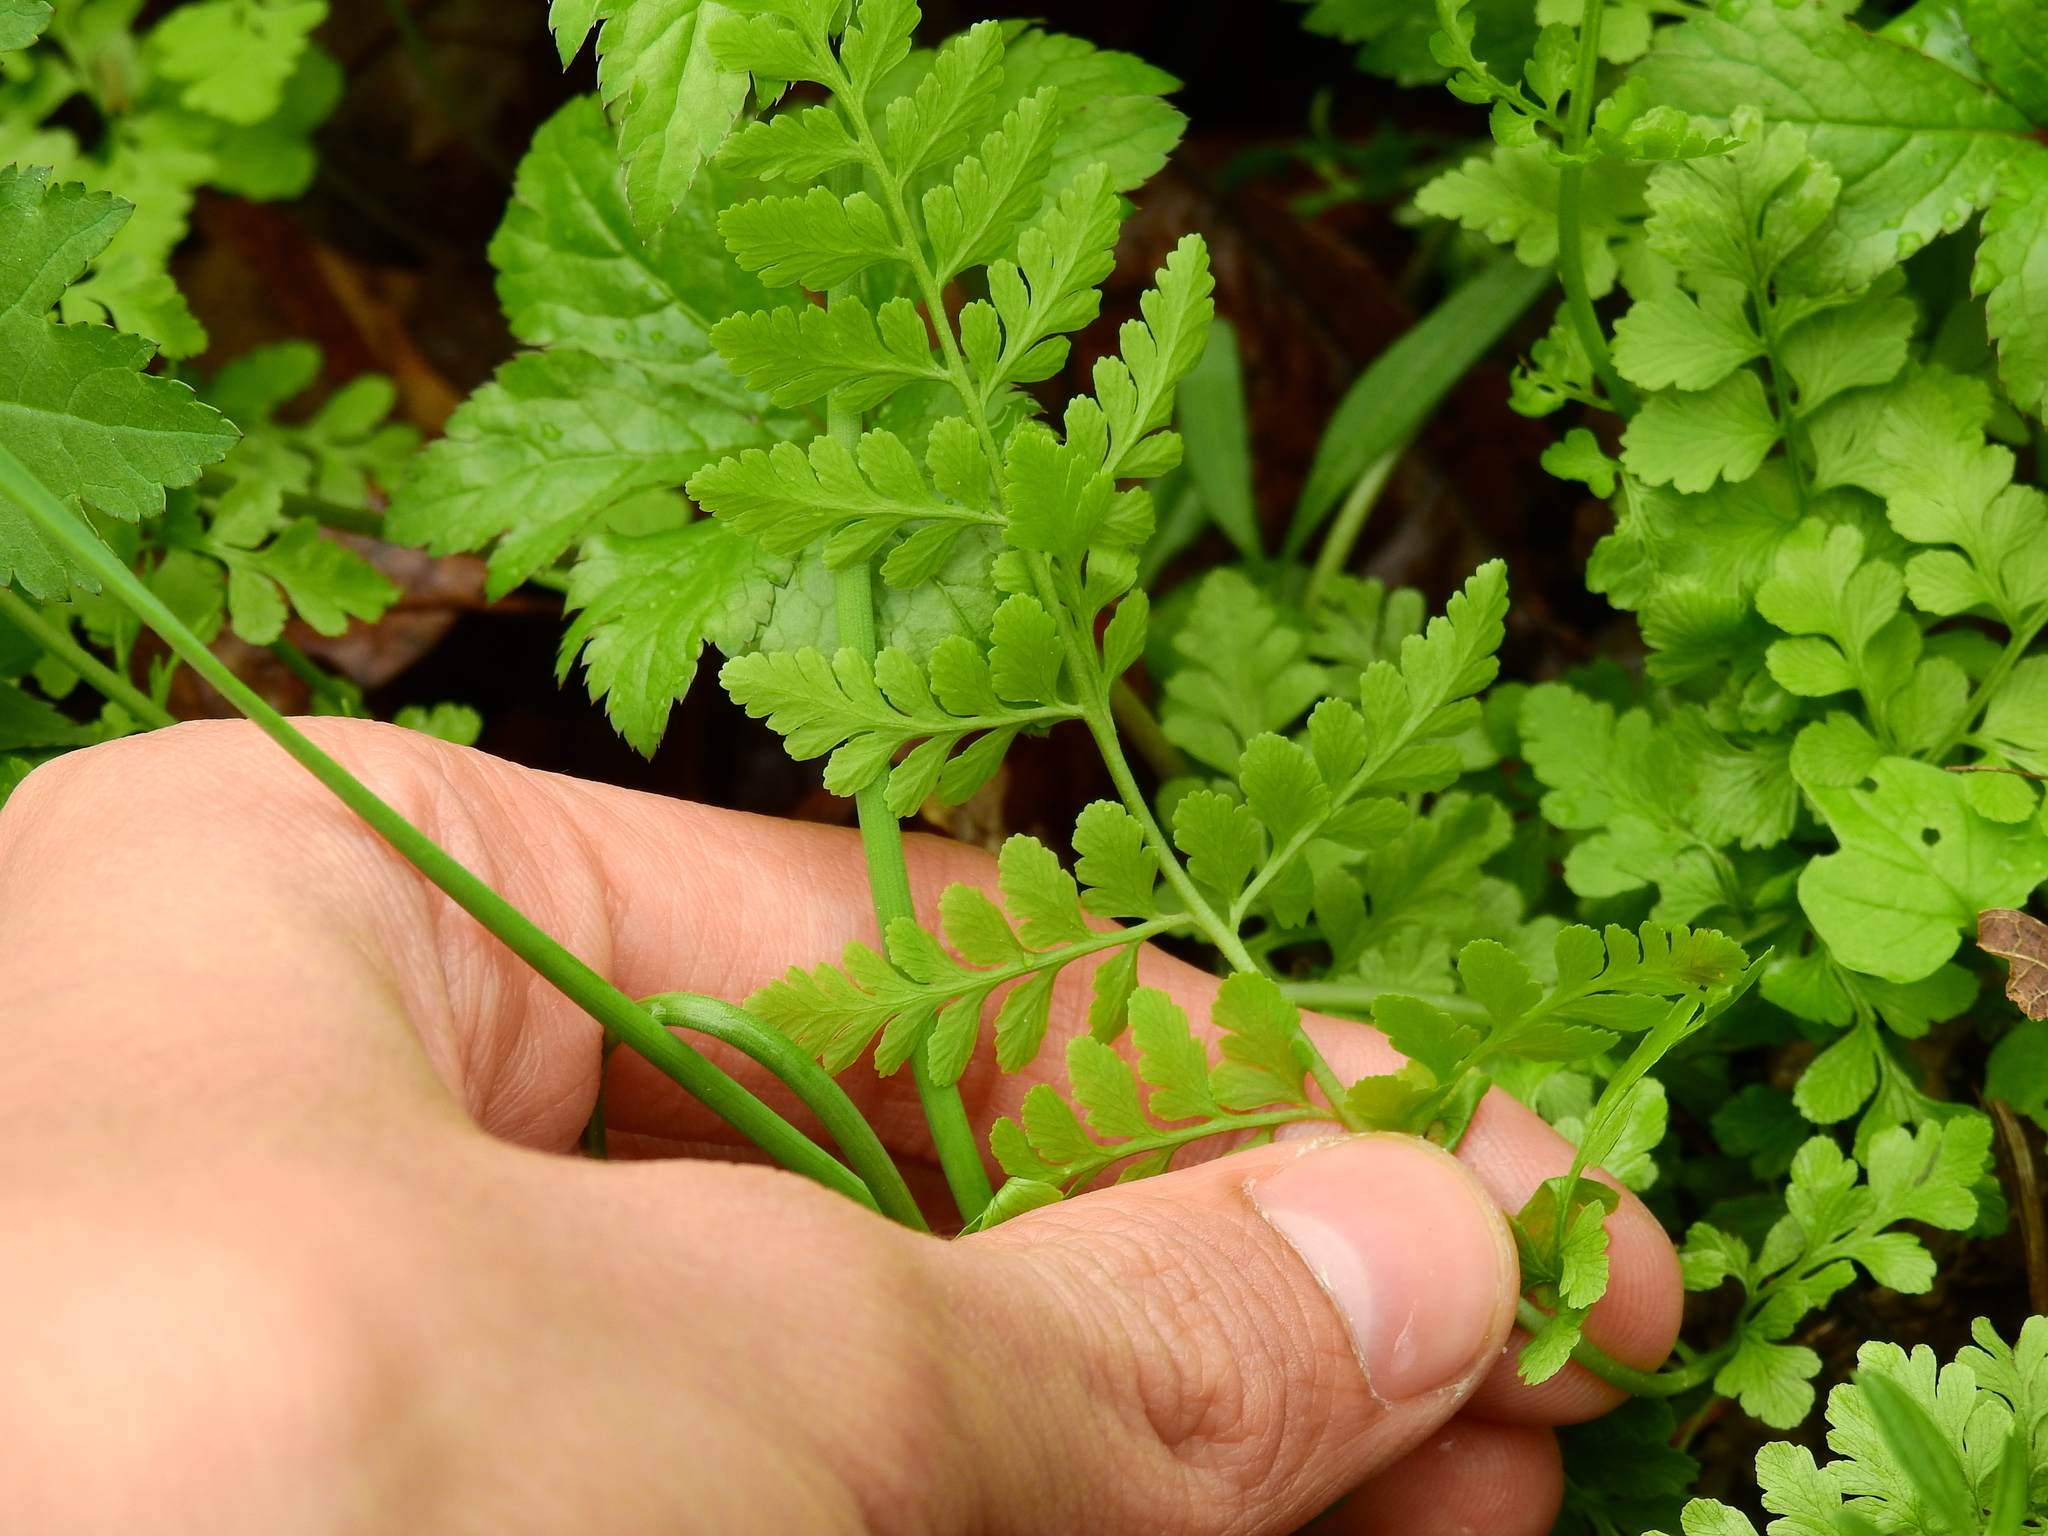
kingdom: Plantae
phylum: Tracheophyta
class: Polypodiopsida
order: Polypodiales
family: Cystopteridaceae
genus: Cystopteris
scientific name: Cystopteris protrusa
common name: Lowland brittle fern
